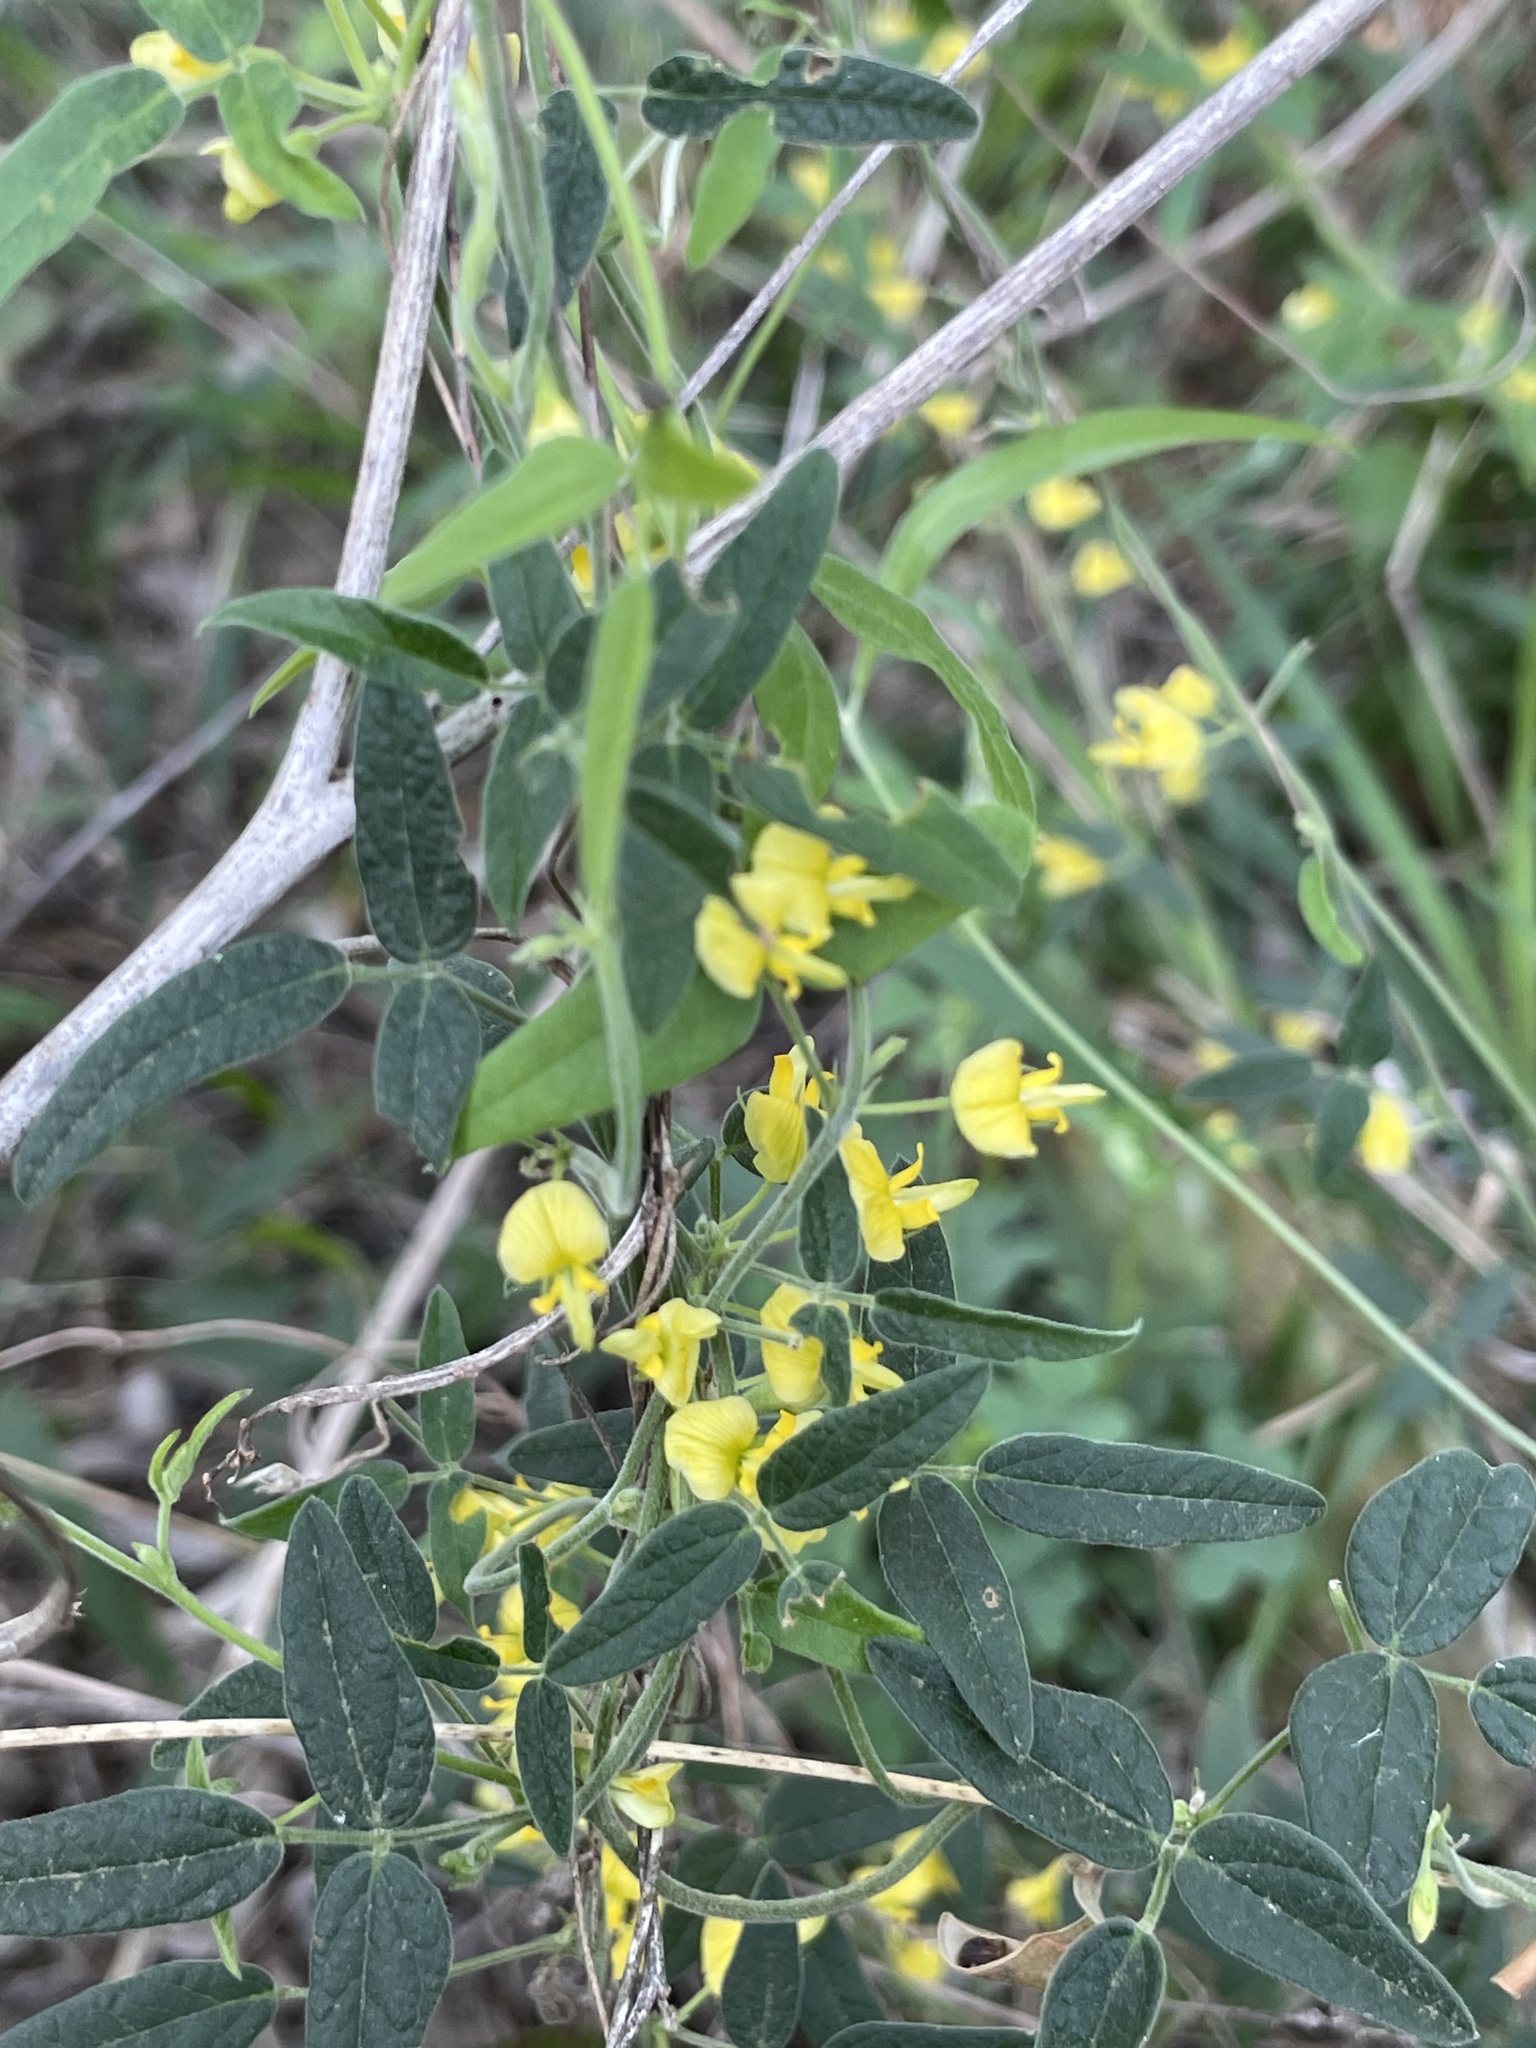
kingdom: Plantae
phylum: Tracheophyta
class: Magnoliopsida
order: Fabales
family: Fabaceae
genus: Rhynchosia
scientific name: Rhynchosia senna
